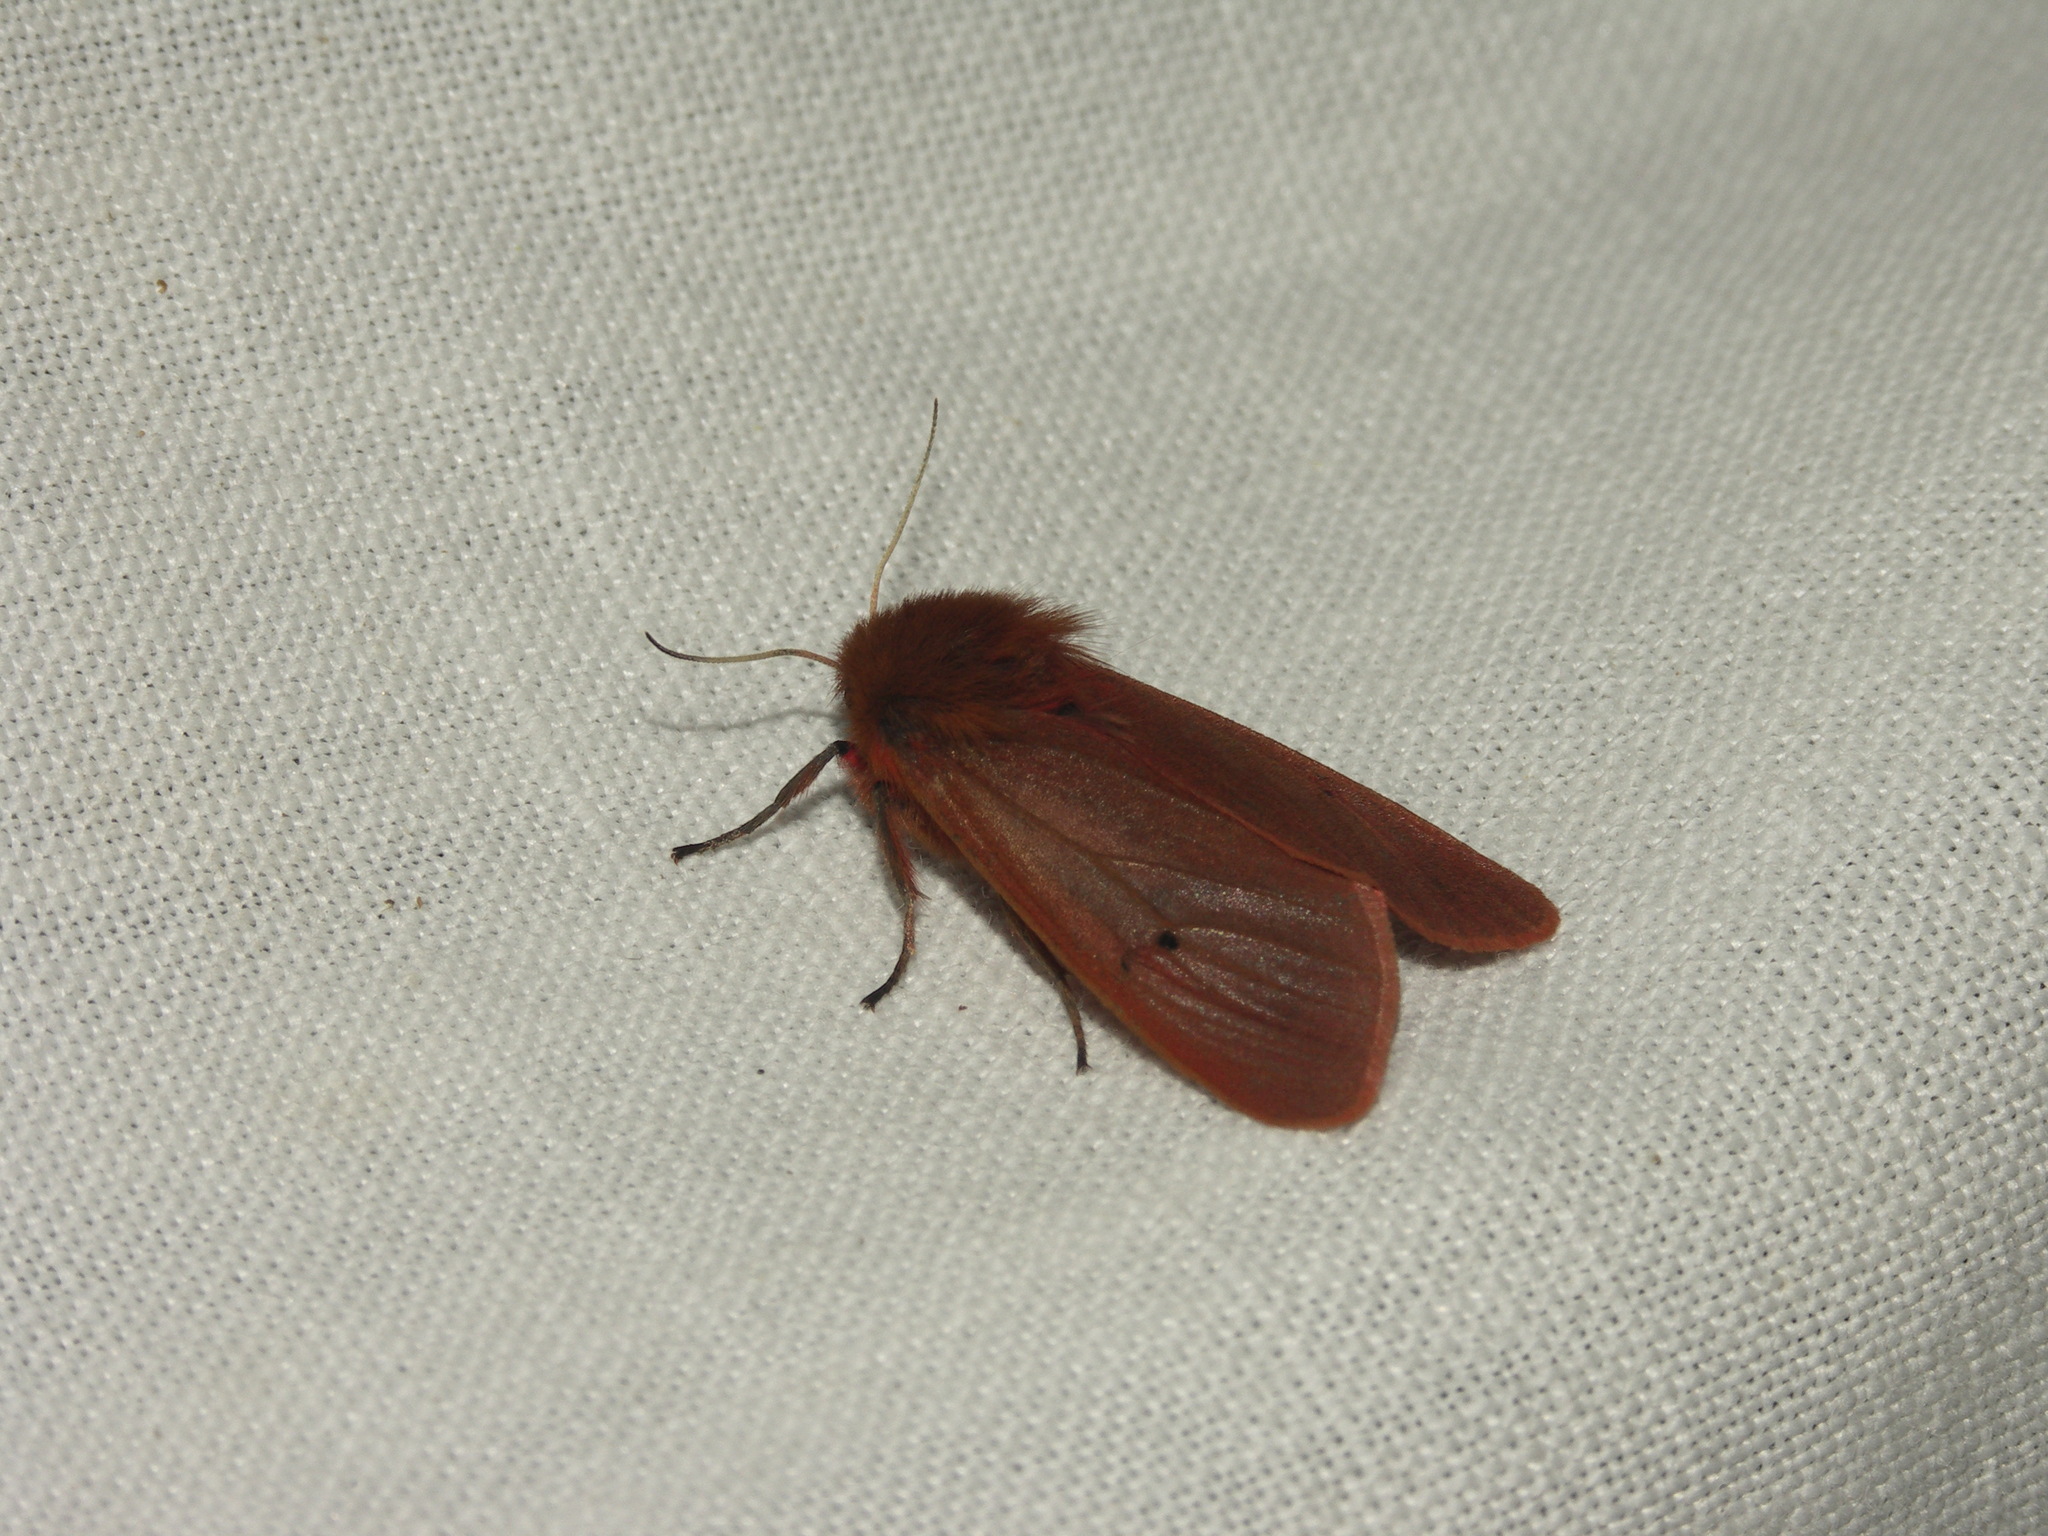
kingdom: Animalia
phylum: Arthropoda
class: Insecta
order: Lepidoptera
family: Erebidae
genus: Phragmatobia
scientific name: Phragmatobia fuliginosa
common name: Ruby tiger
